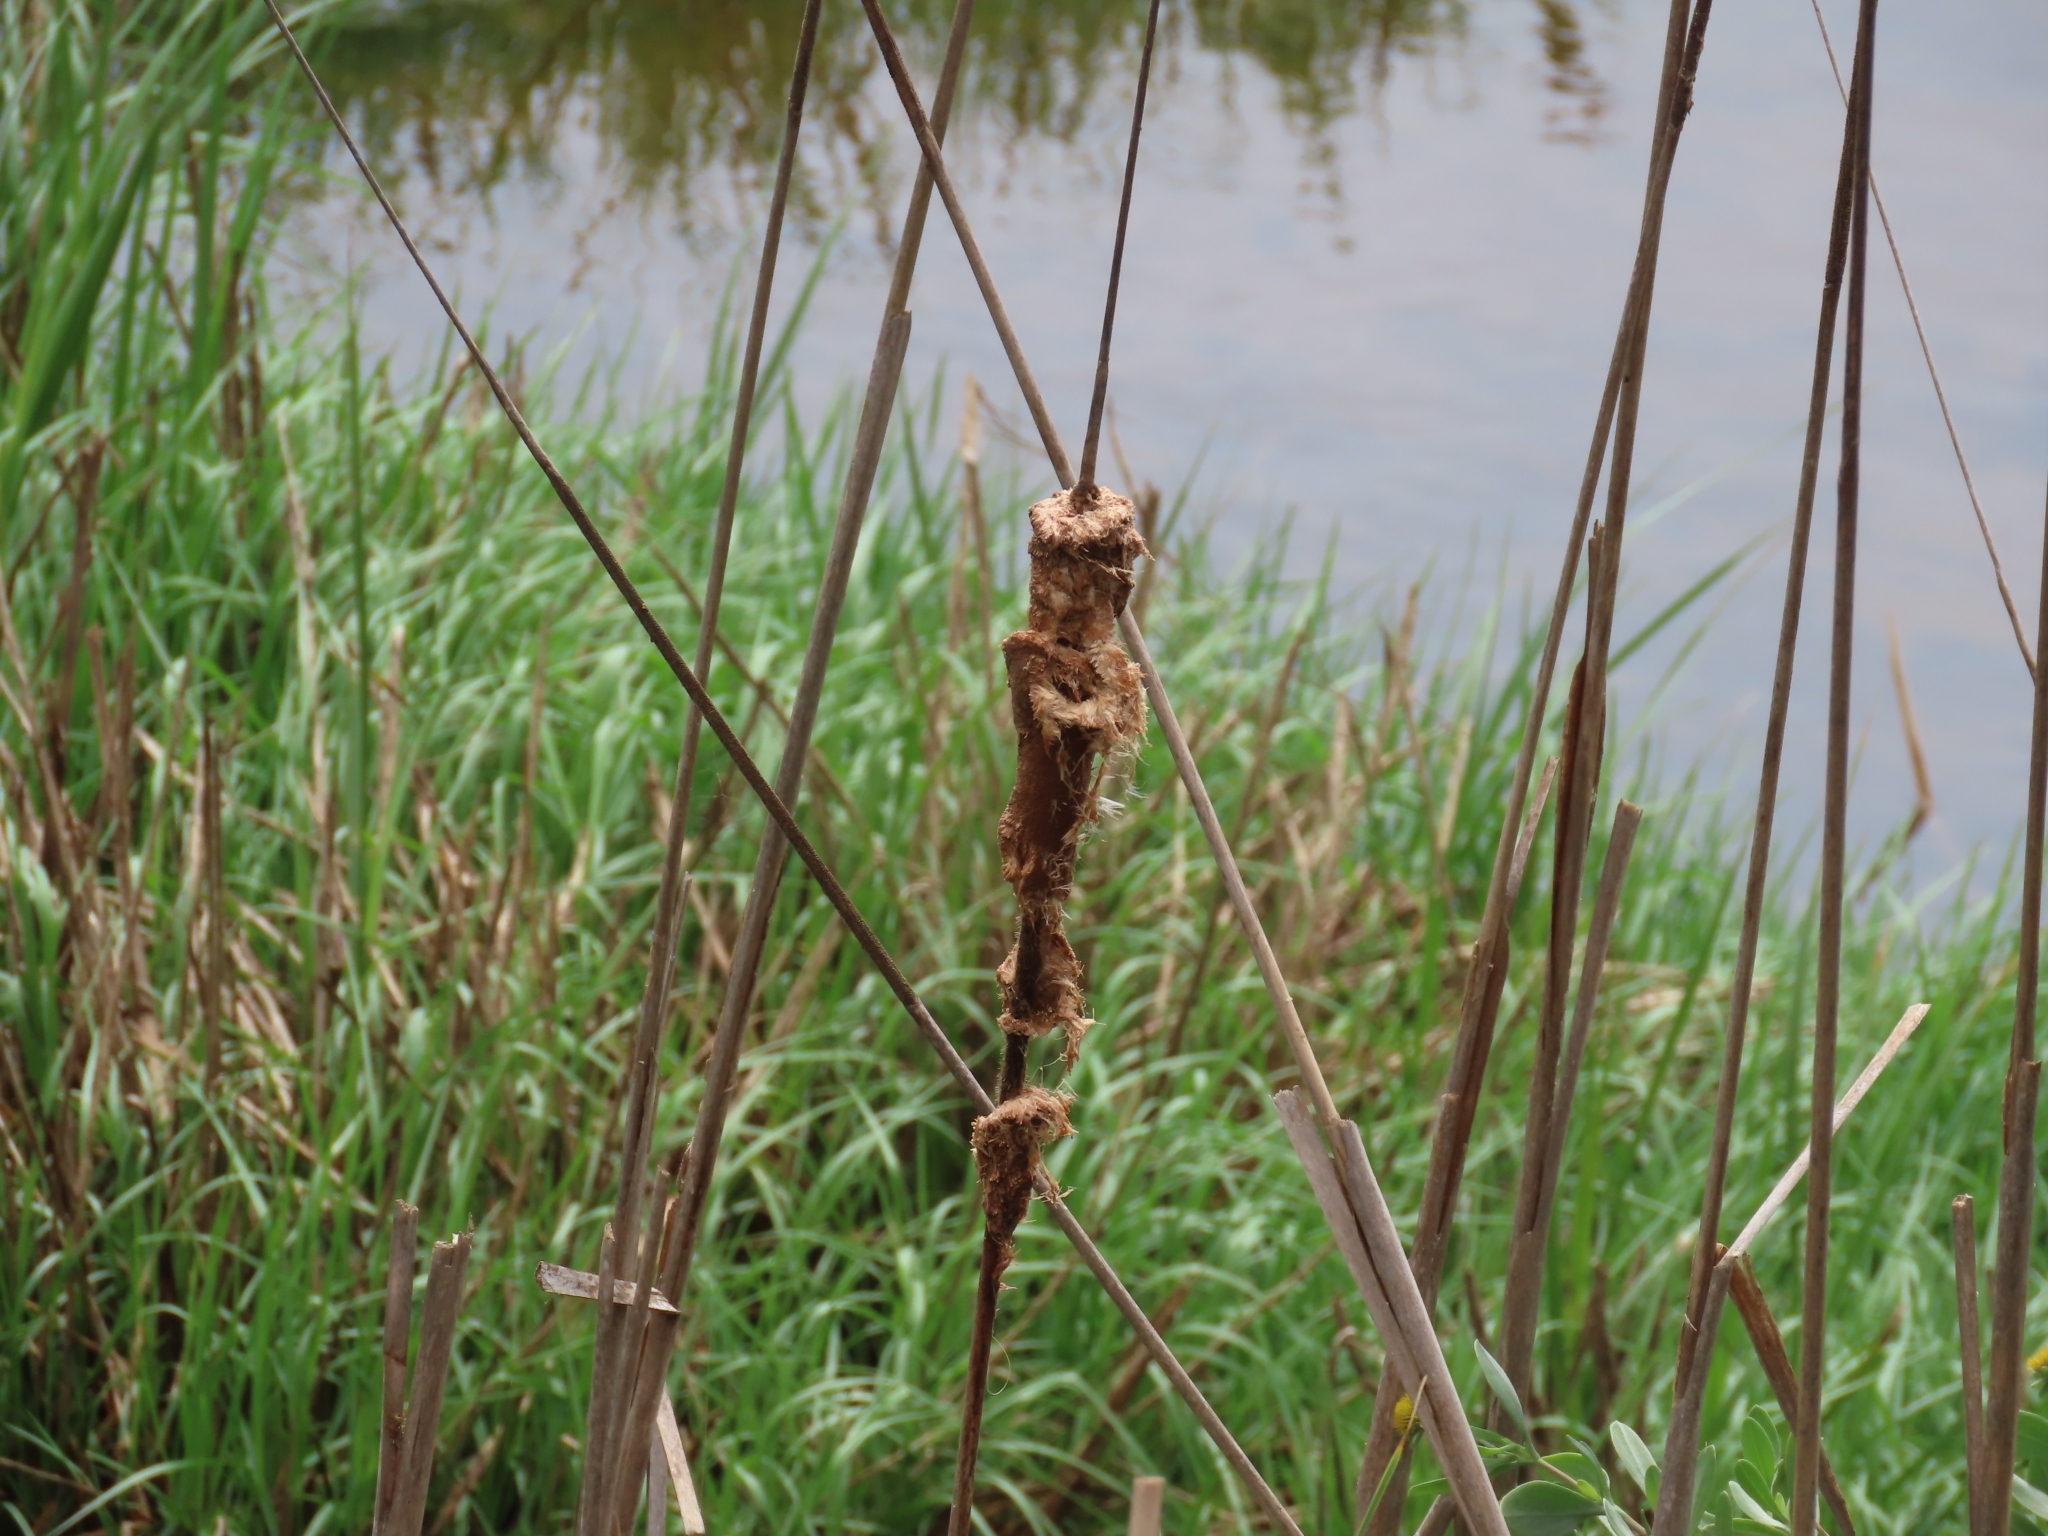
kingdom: Plantae
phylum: Tracheophyta
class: Liliopsida
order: Poales
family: Typhaceae
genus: Typha
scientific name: Typha domingensis
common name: Southern cattail
